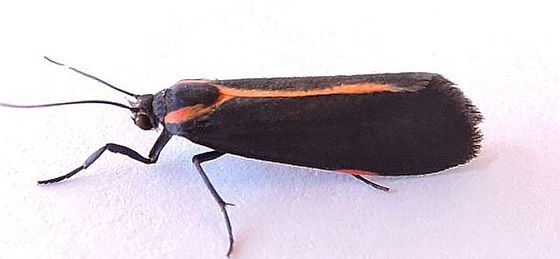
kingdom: Animalia
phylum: Arthropoda
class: Insecta
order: Lepidoptera
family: Erebidae
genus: Cisthene
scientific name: Cisthene juanita
